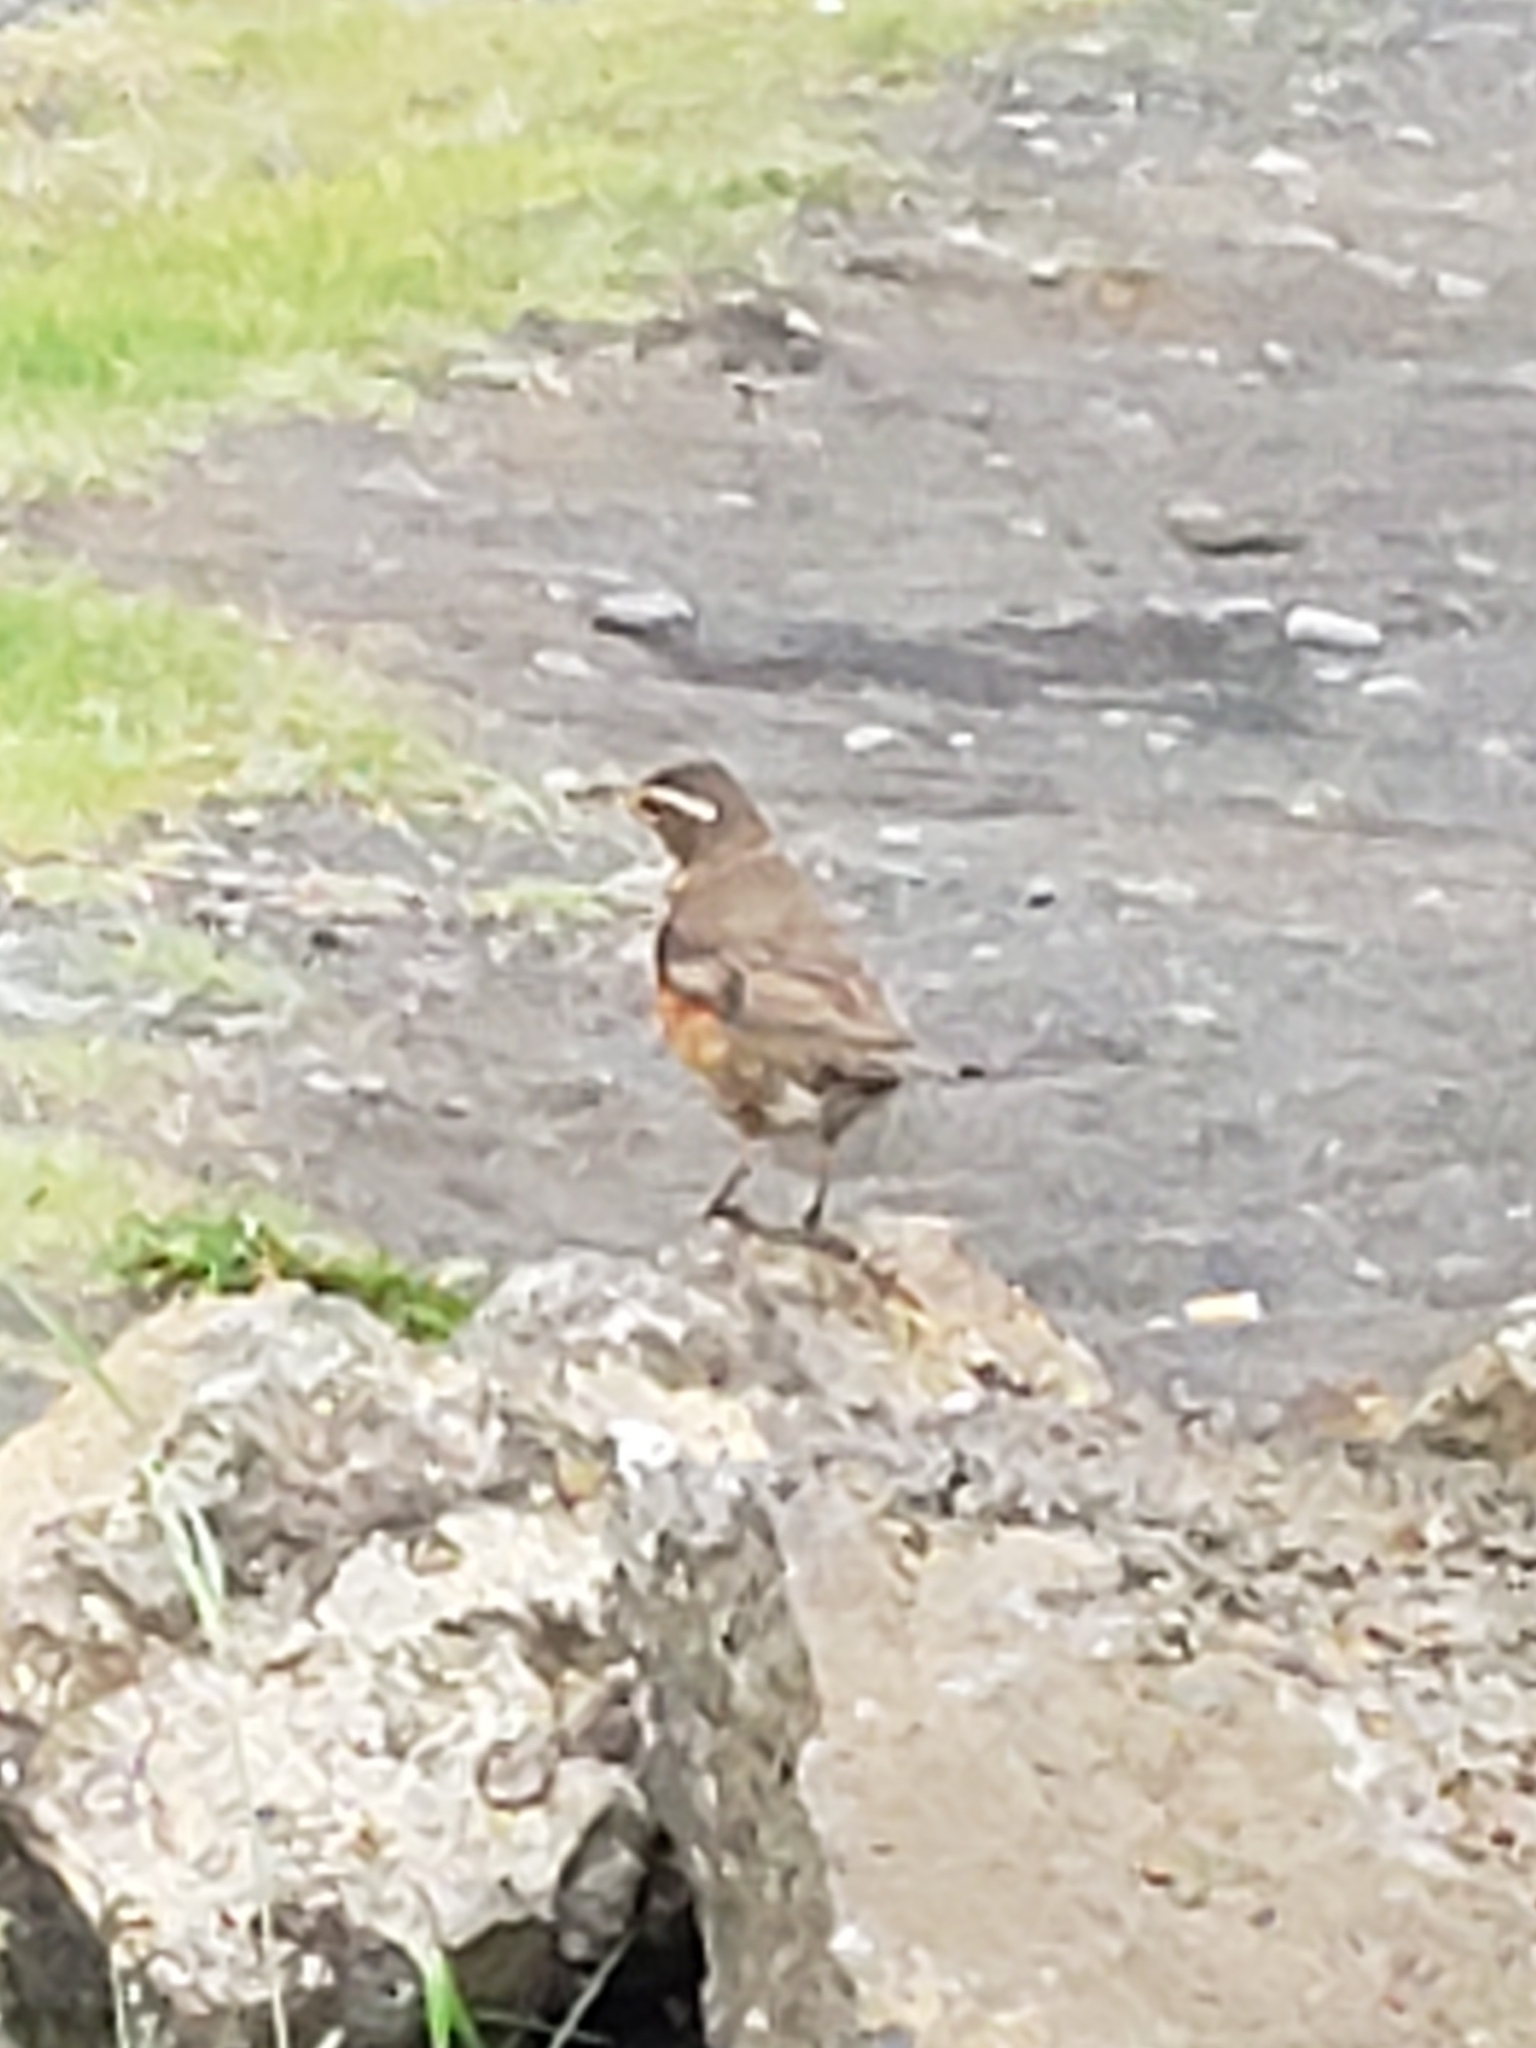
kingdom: Animalia
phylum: Chordata
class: Aves
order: Passeriformes
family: Turdidae
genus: Turdus
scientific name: Turdus iliacus
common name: Redwing
